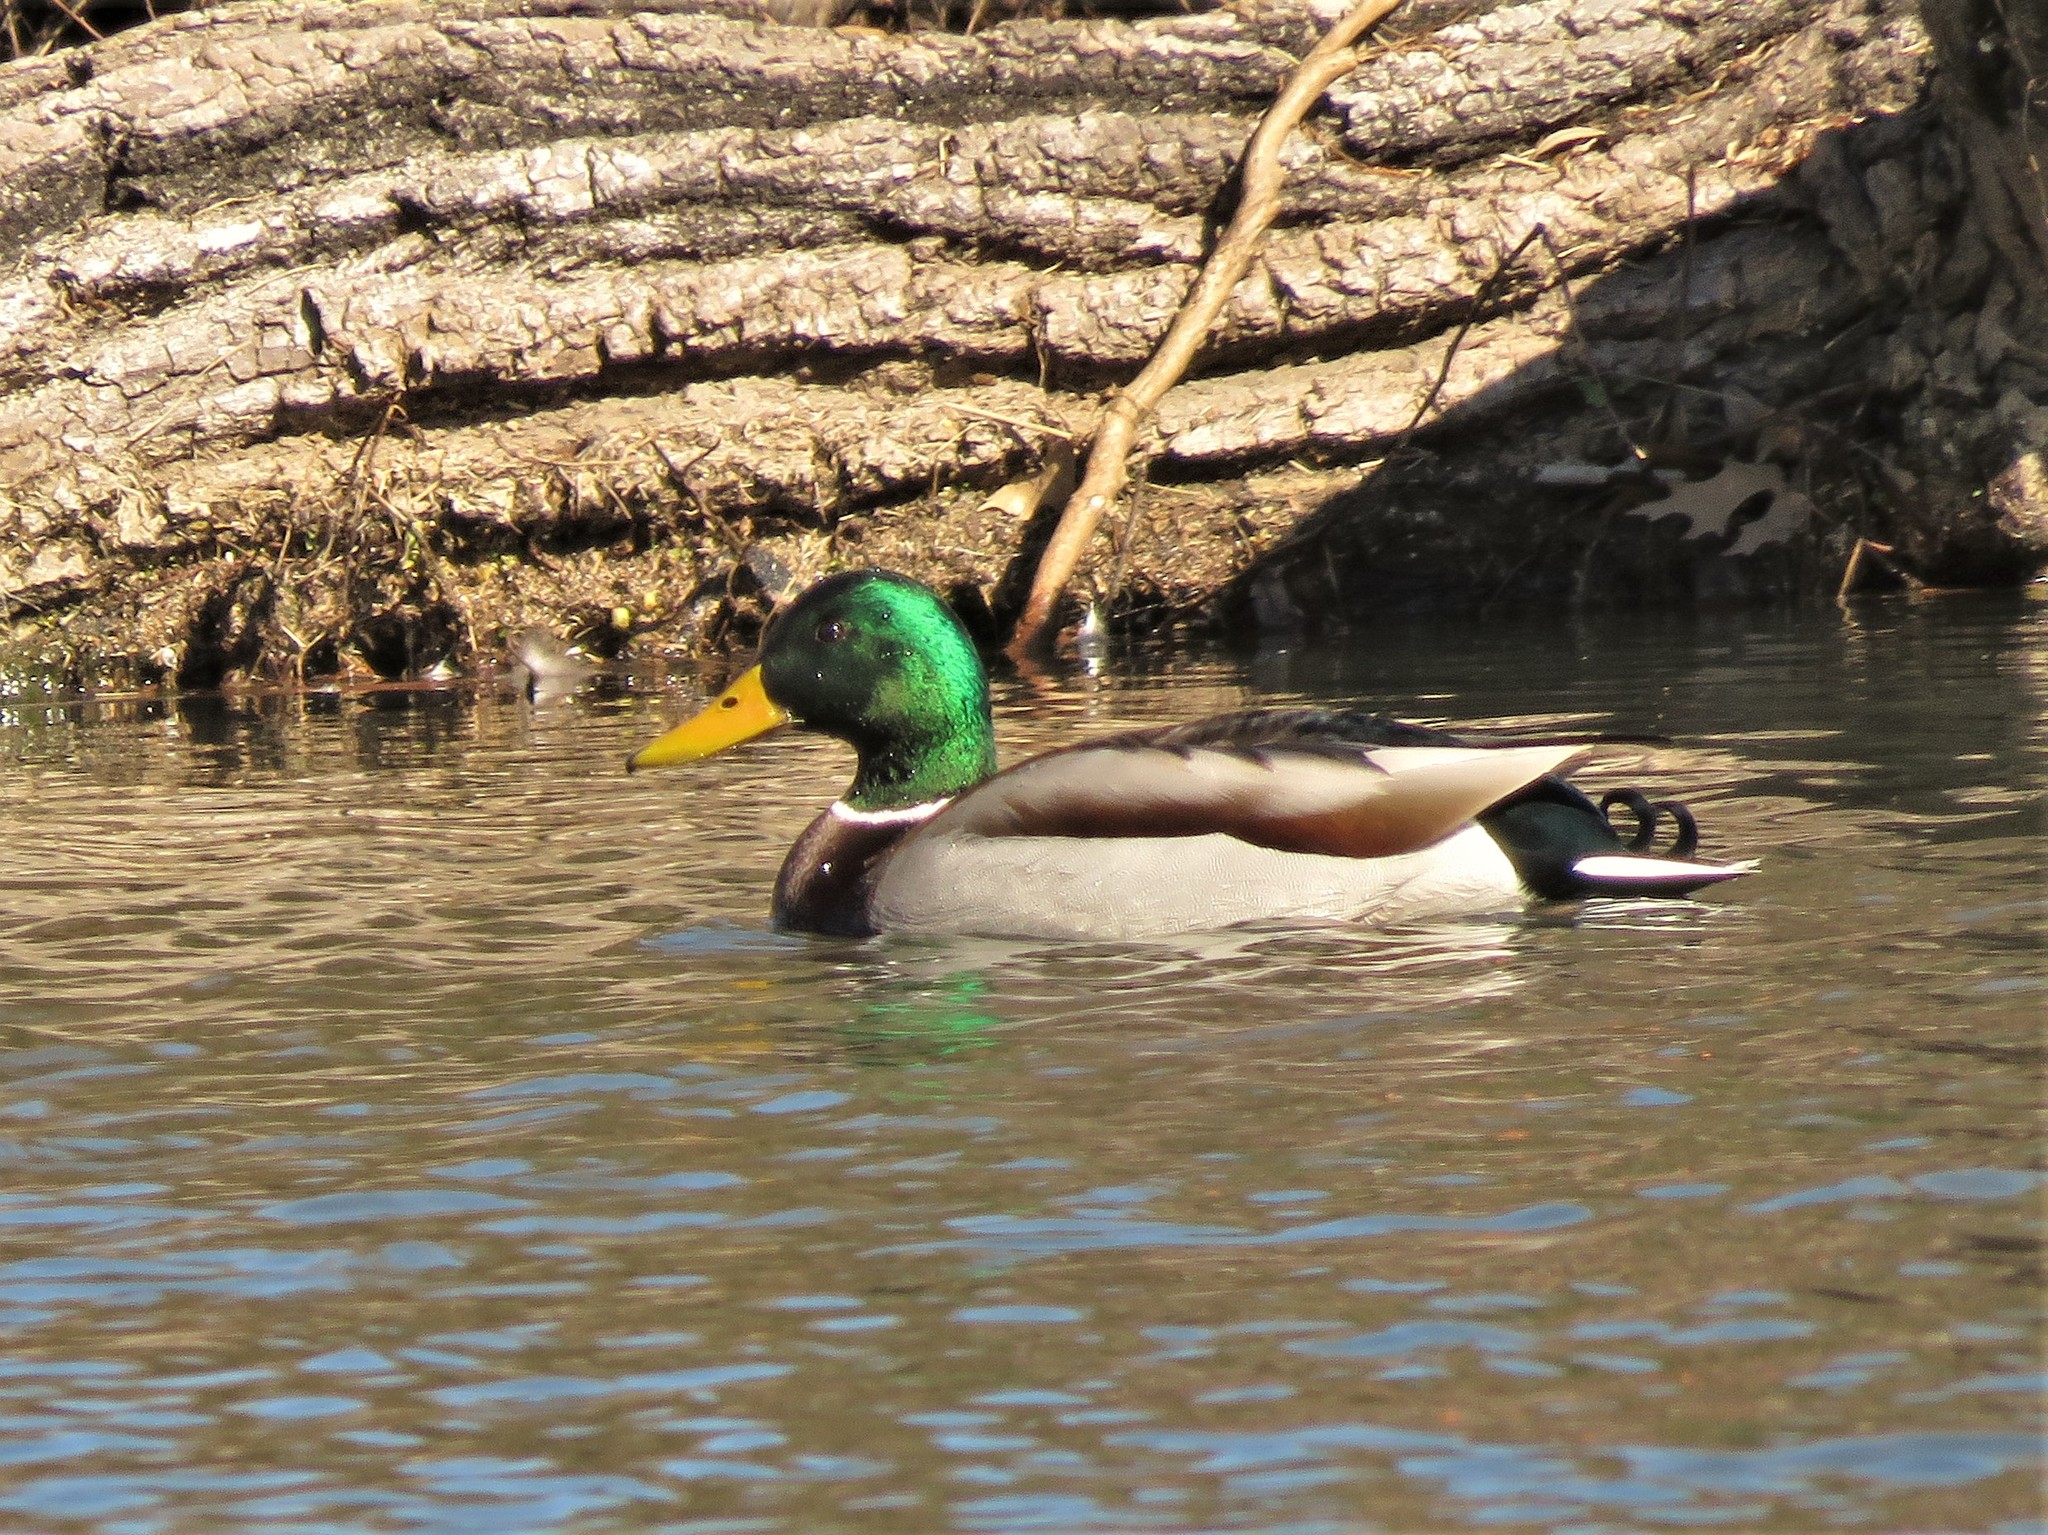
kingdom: Animalia
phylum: Chordata
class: Aves
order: Anseriformes
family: Anatidae
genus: Anas
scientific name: Anas platyrhynchos
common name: Mallard
